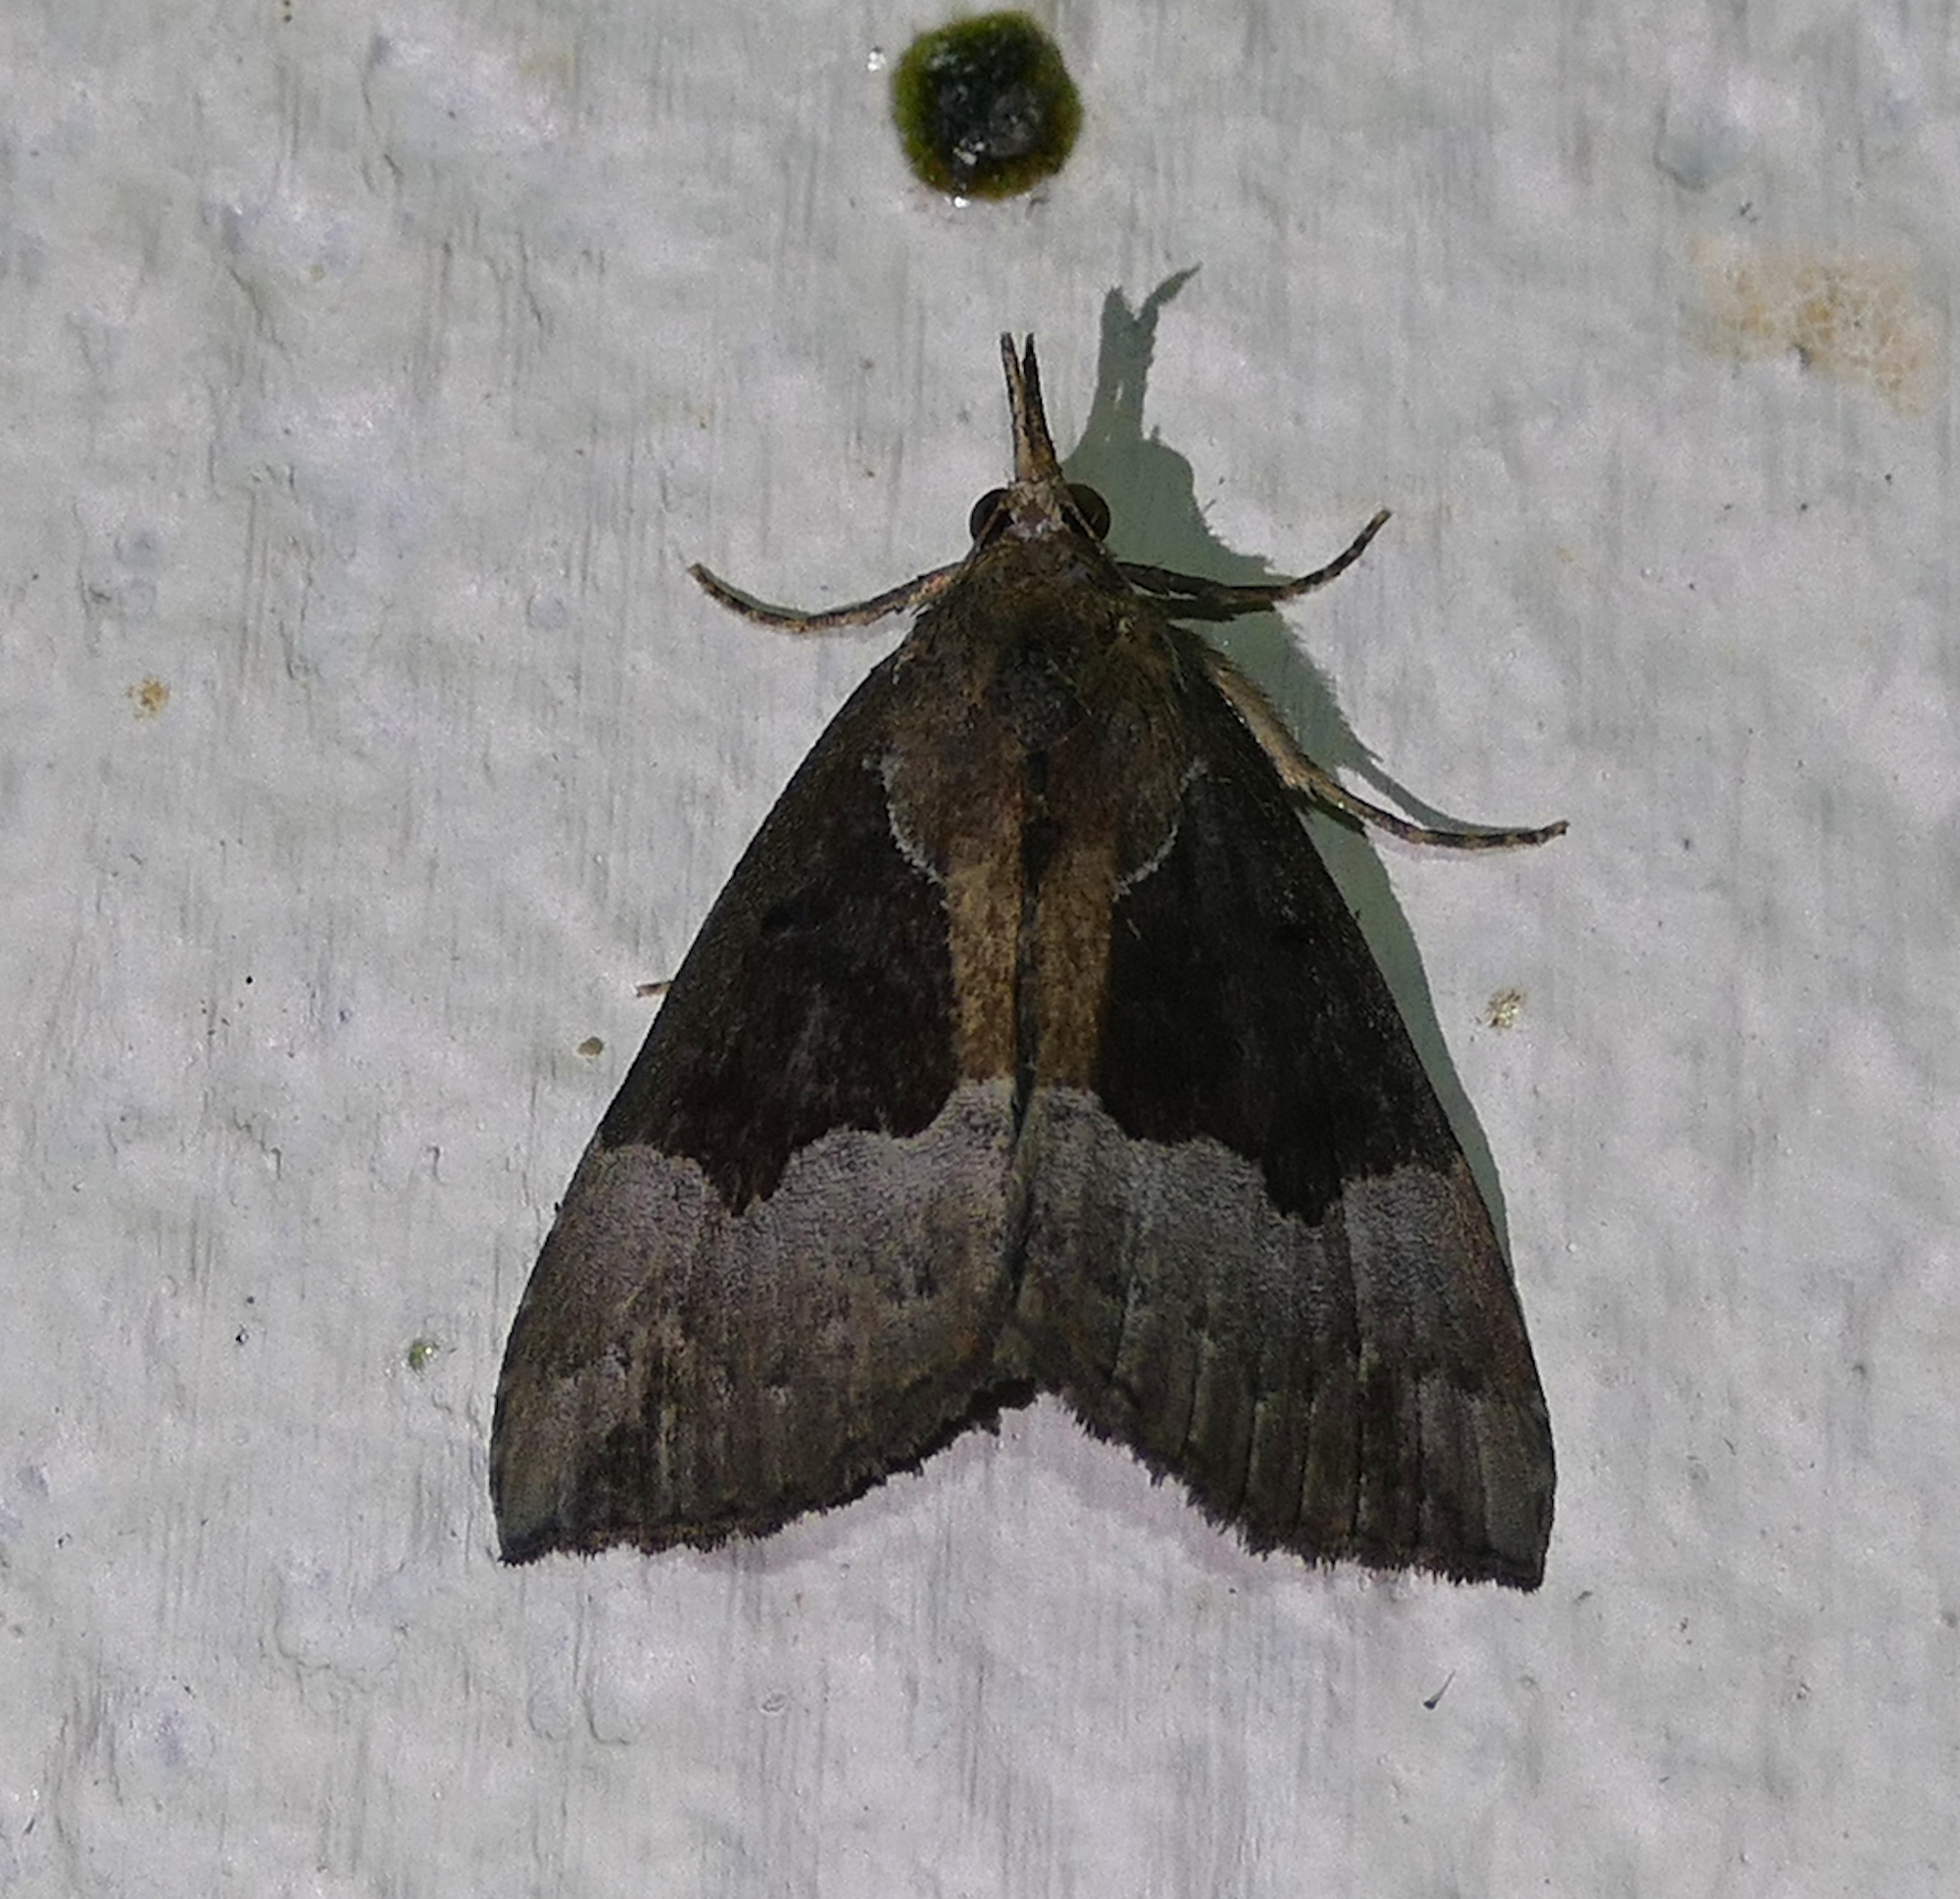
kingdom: Animalia
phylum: Arthropoda
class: Insecta
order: Lepidoptera
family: Erebidae
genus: Hypena
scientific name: Hypena bijugalis
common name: Dimorphic bomolocha moth
